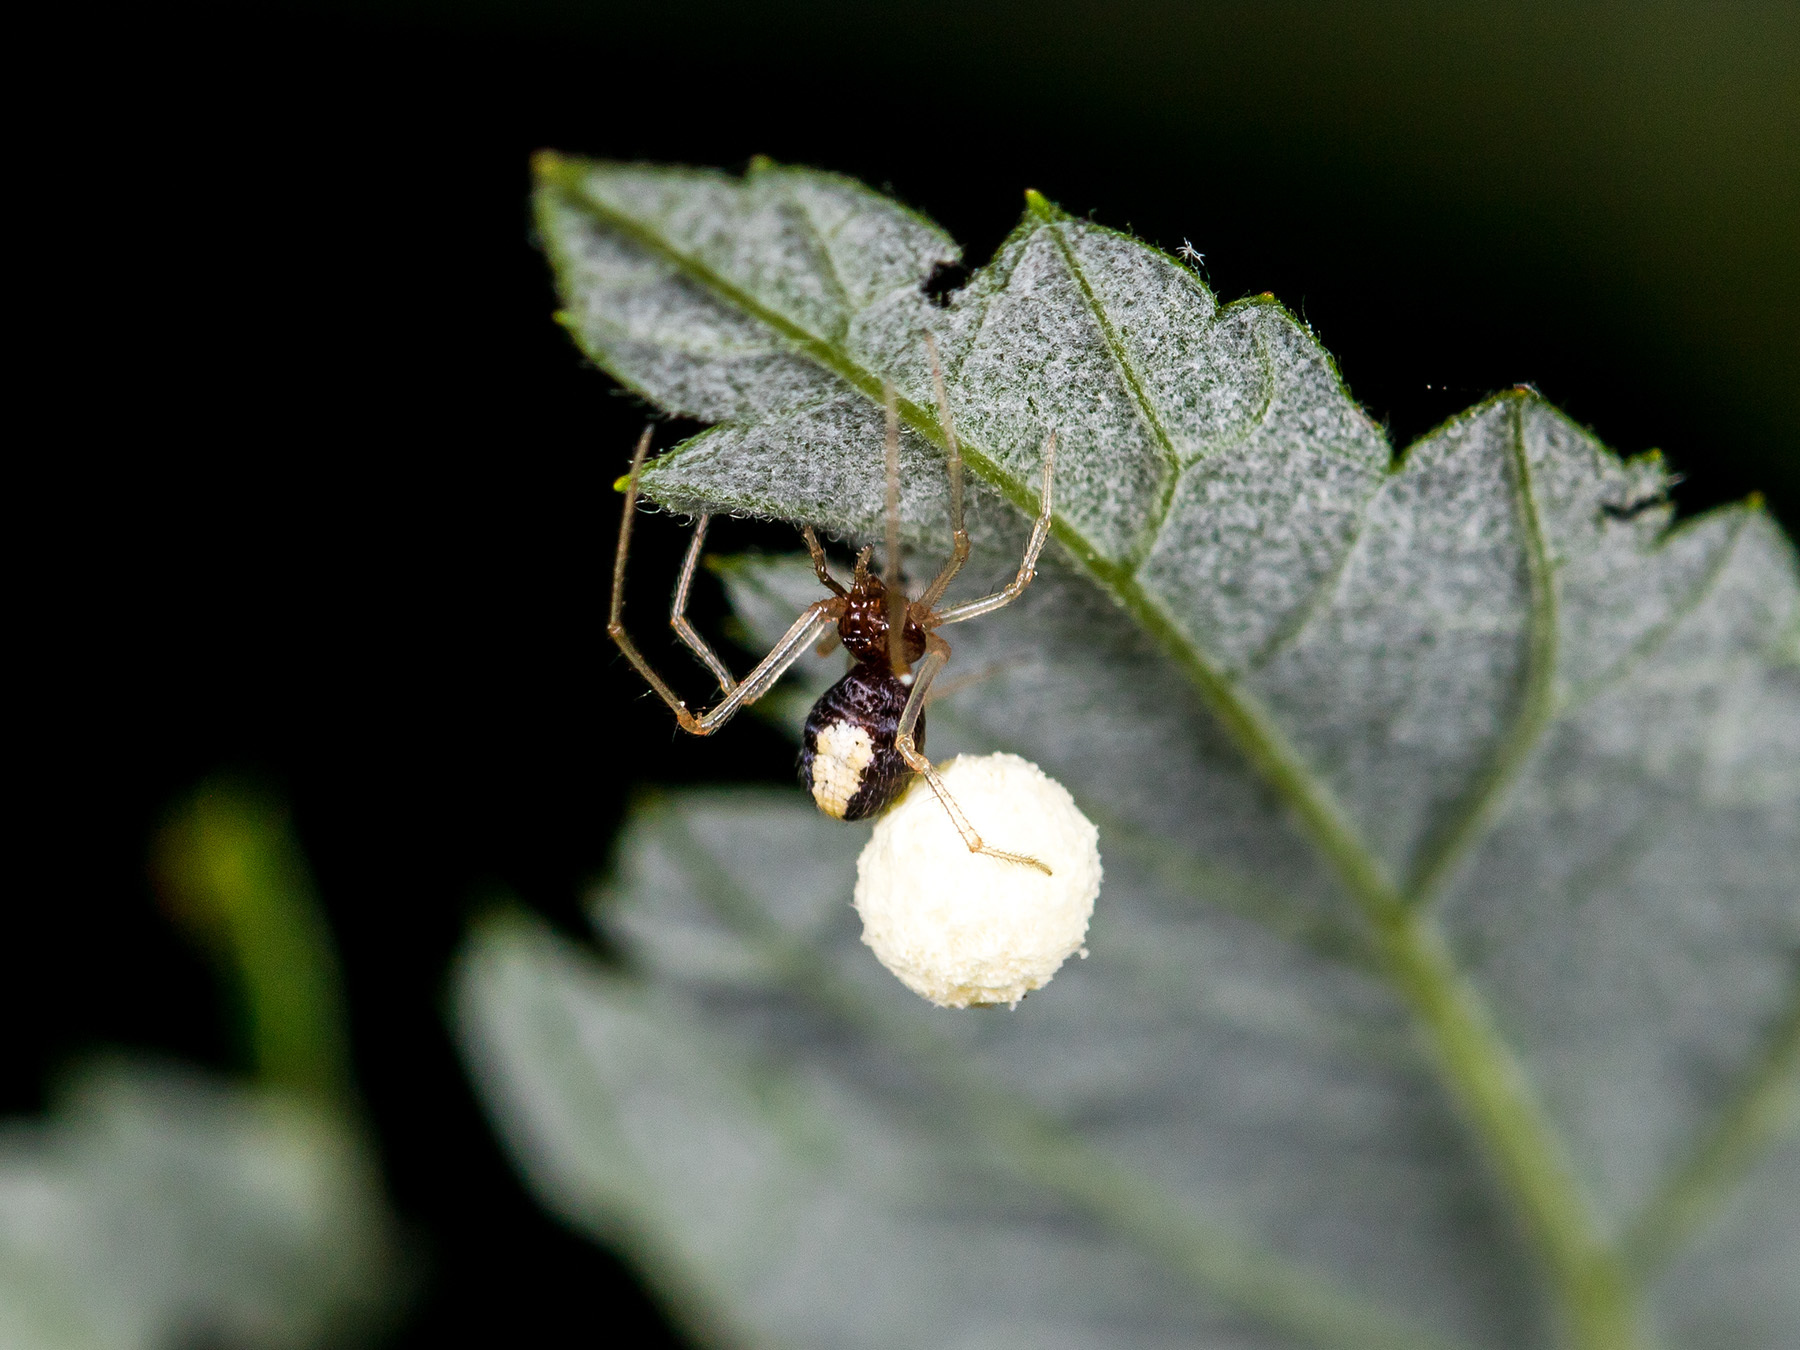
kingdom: Animalia
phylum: Arthropoda
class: Arachnida
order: Araneae
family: Theridiidae
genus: Neottiura
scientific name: Neottiura bimaculata
